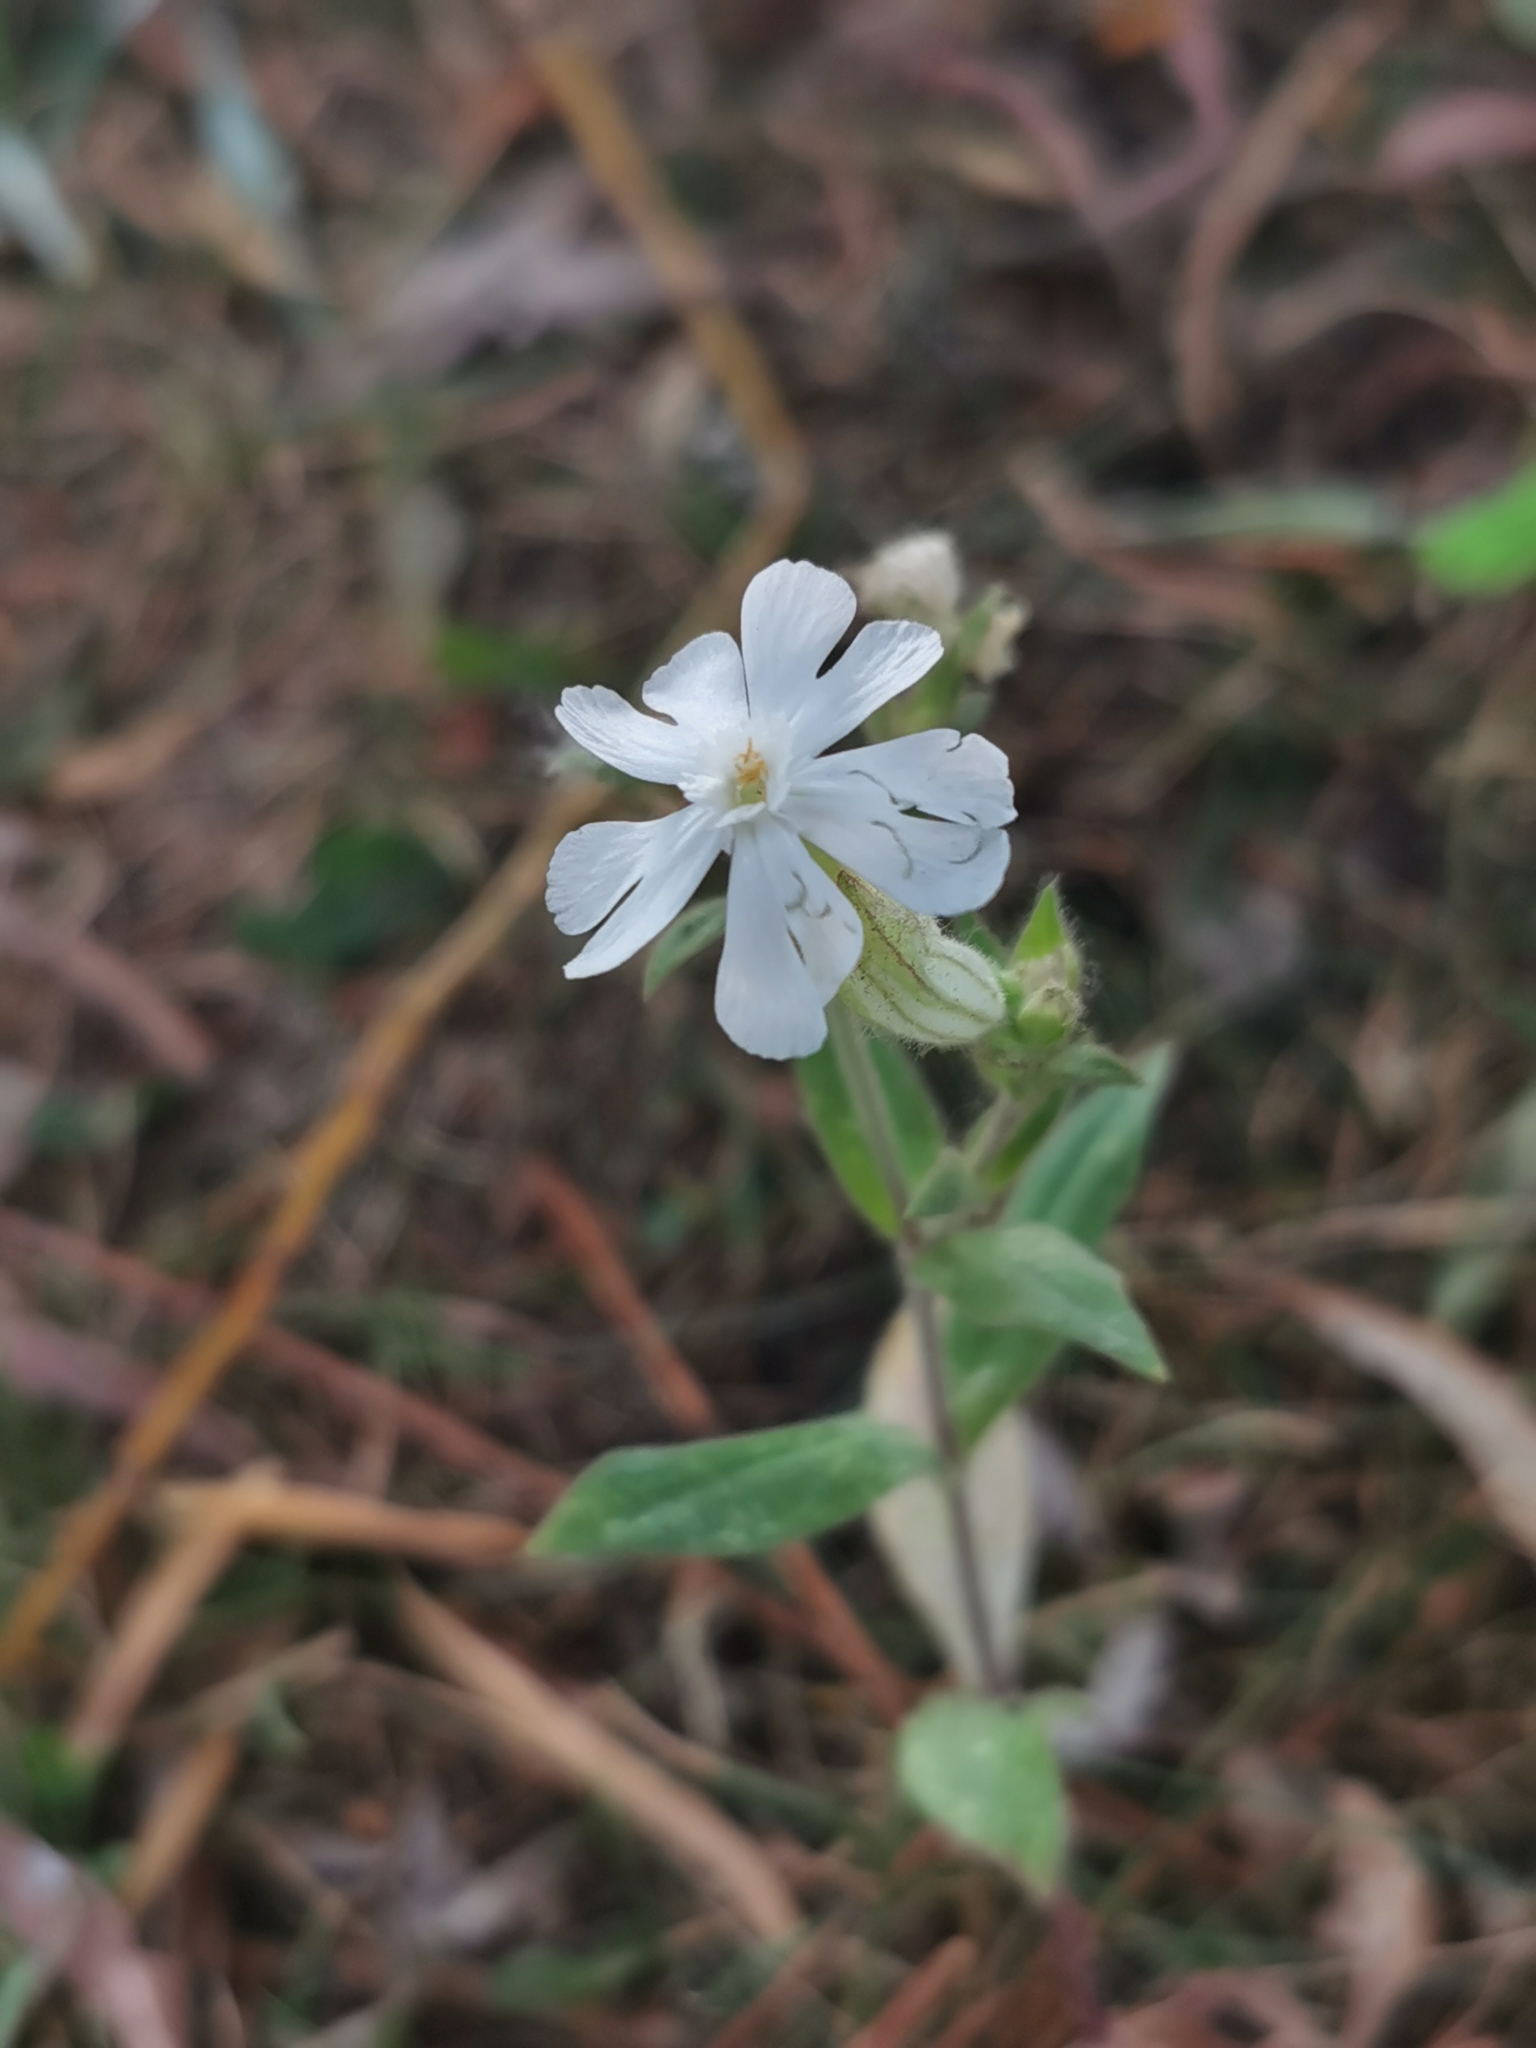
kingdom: Plantae
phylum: Tracheophyta
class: Magnoliopsida
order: Caryophyllales
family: Caryophyllaceae
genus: Silene
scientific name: Silene latifolia
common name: White campion
